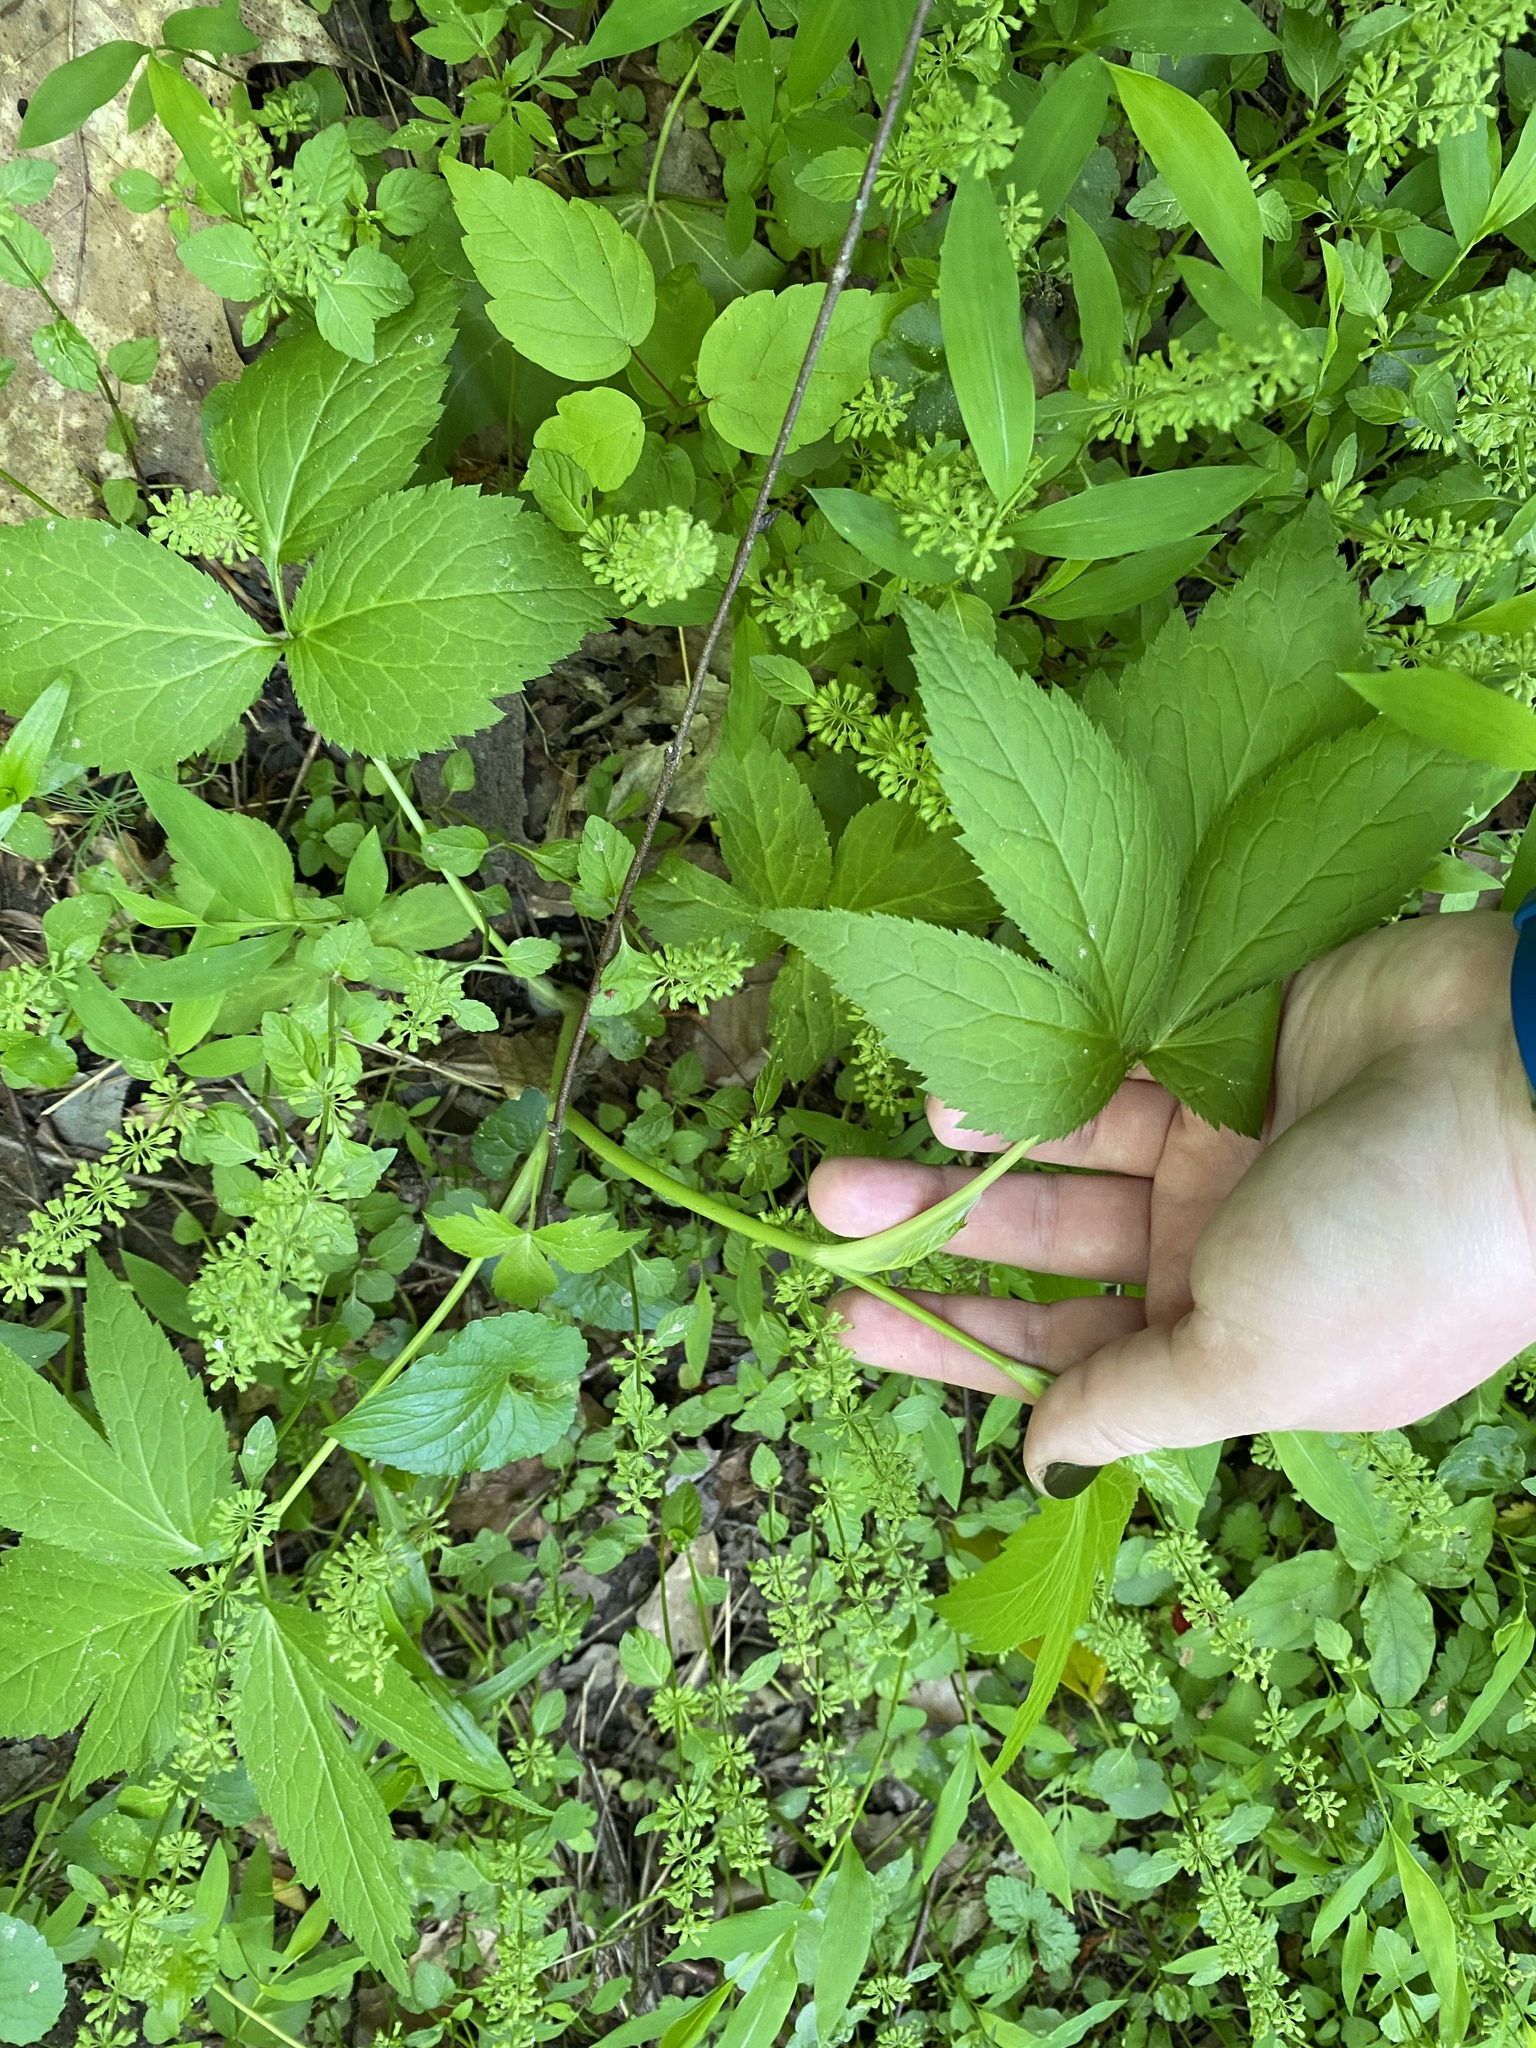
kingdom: Plantae
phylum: Tracheophyta
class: Magnoliopsida
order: Apiales
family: Apiaceae
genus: Cryptotaenia
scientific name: Cryptotaenia canadensis
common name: Honewort
